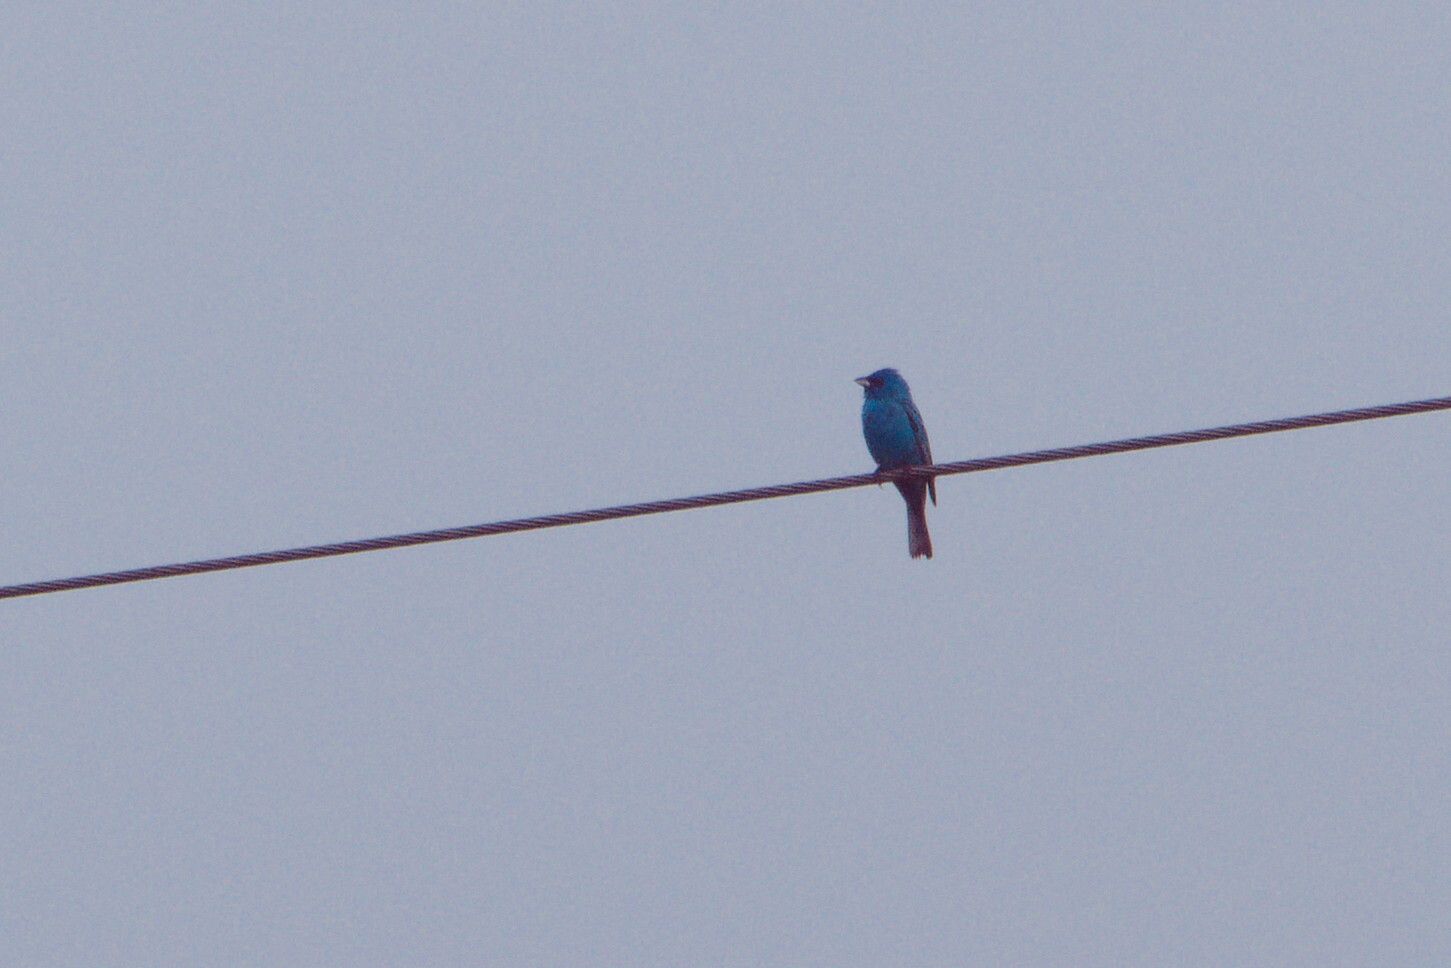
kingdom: Animalia
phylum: Chordata
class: Aves
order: Passeriformes
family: Cardinalidae
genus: Passerina
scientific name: Passerina cyanea
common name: Indigo bunting
